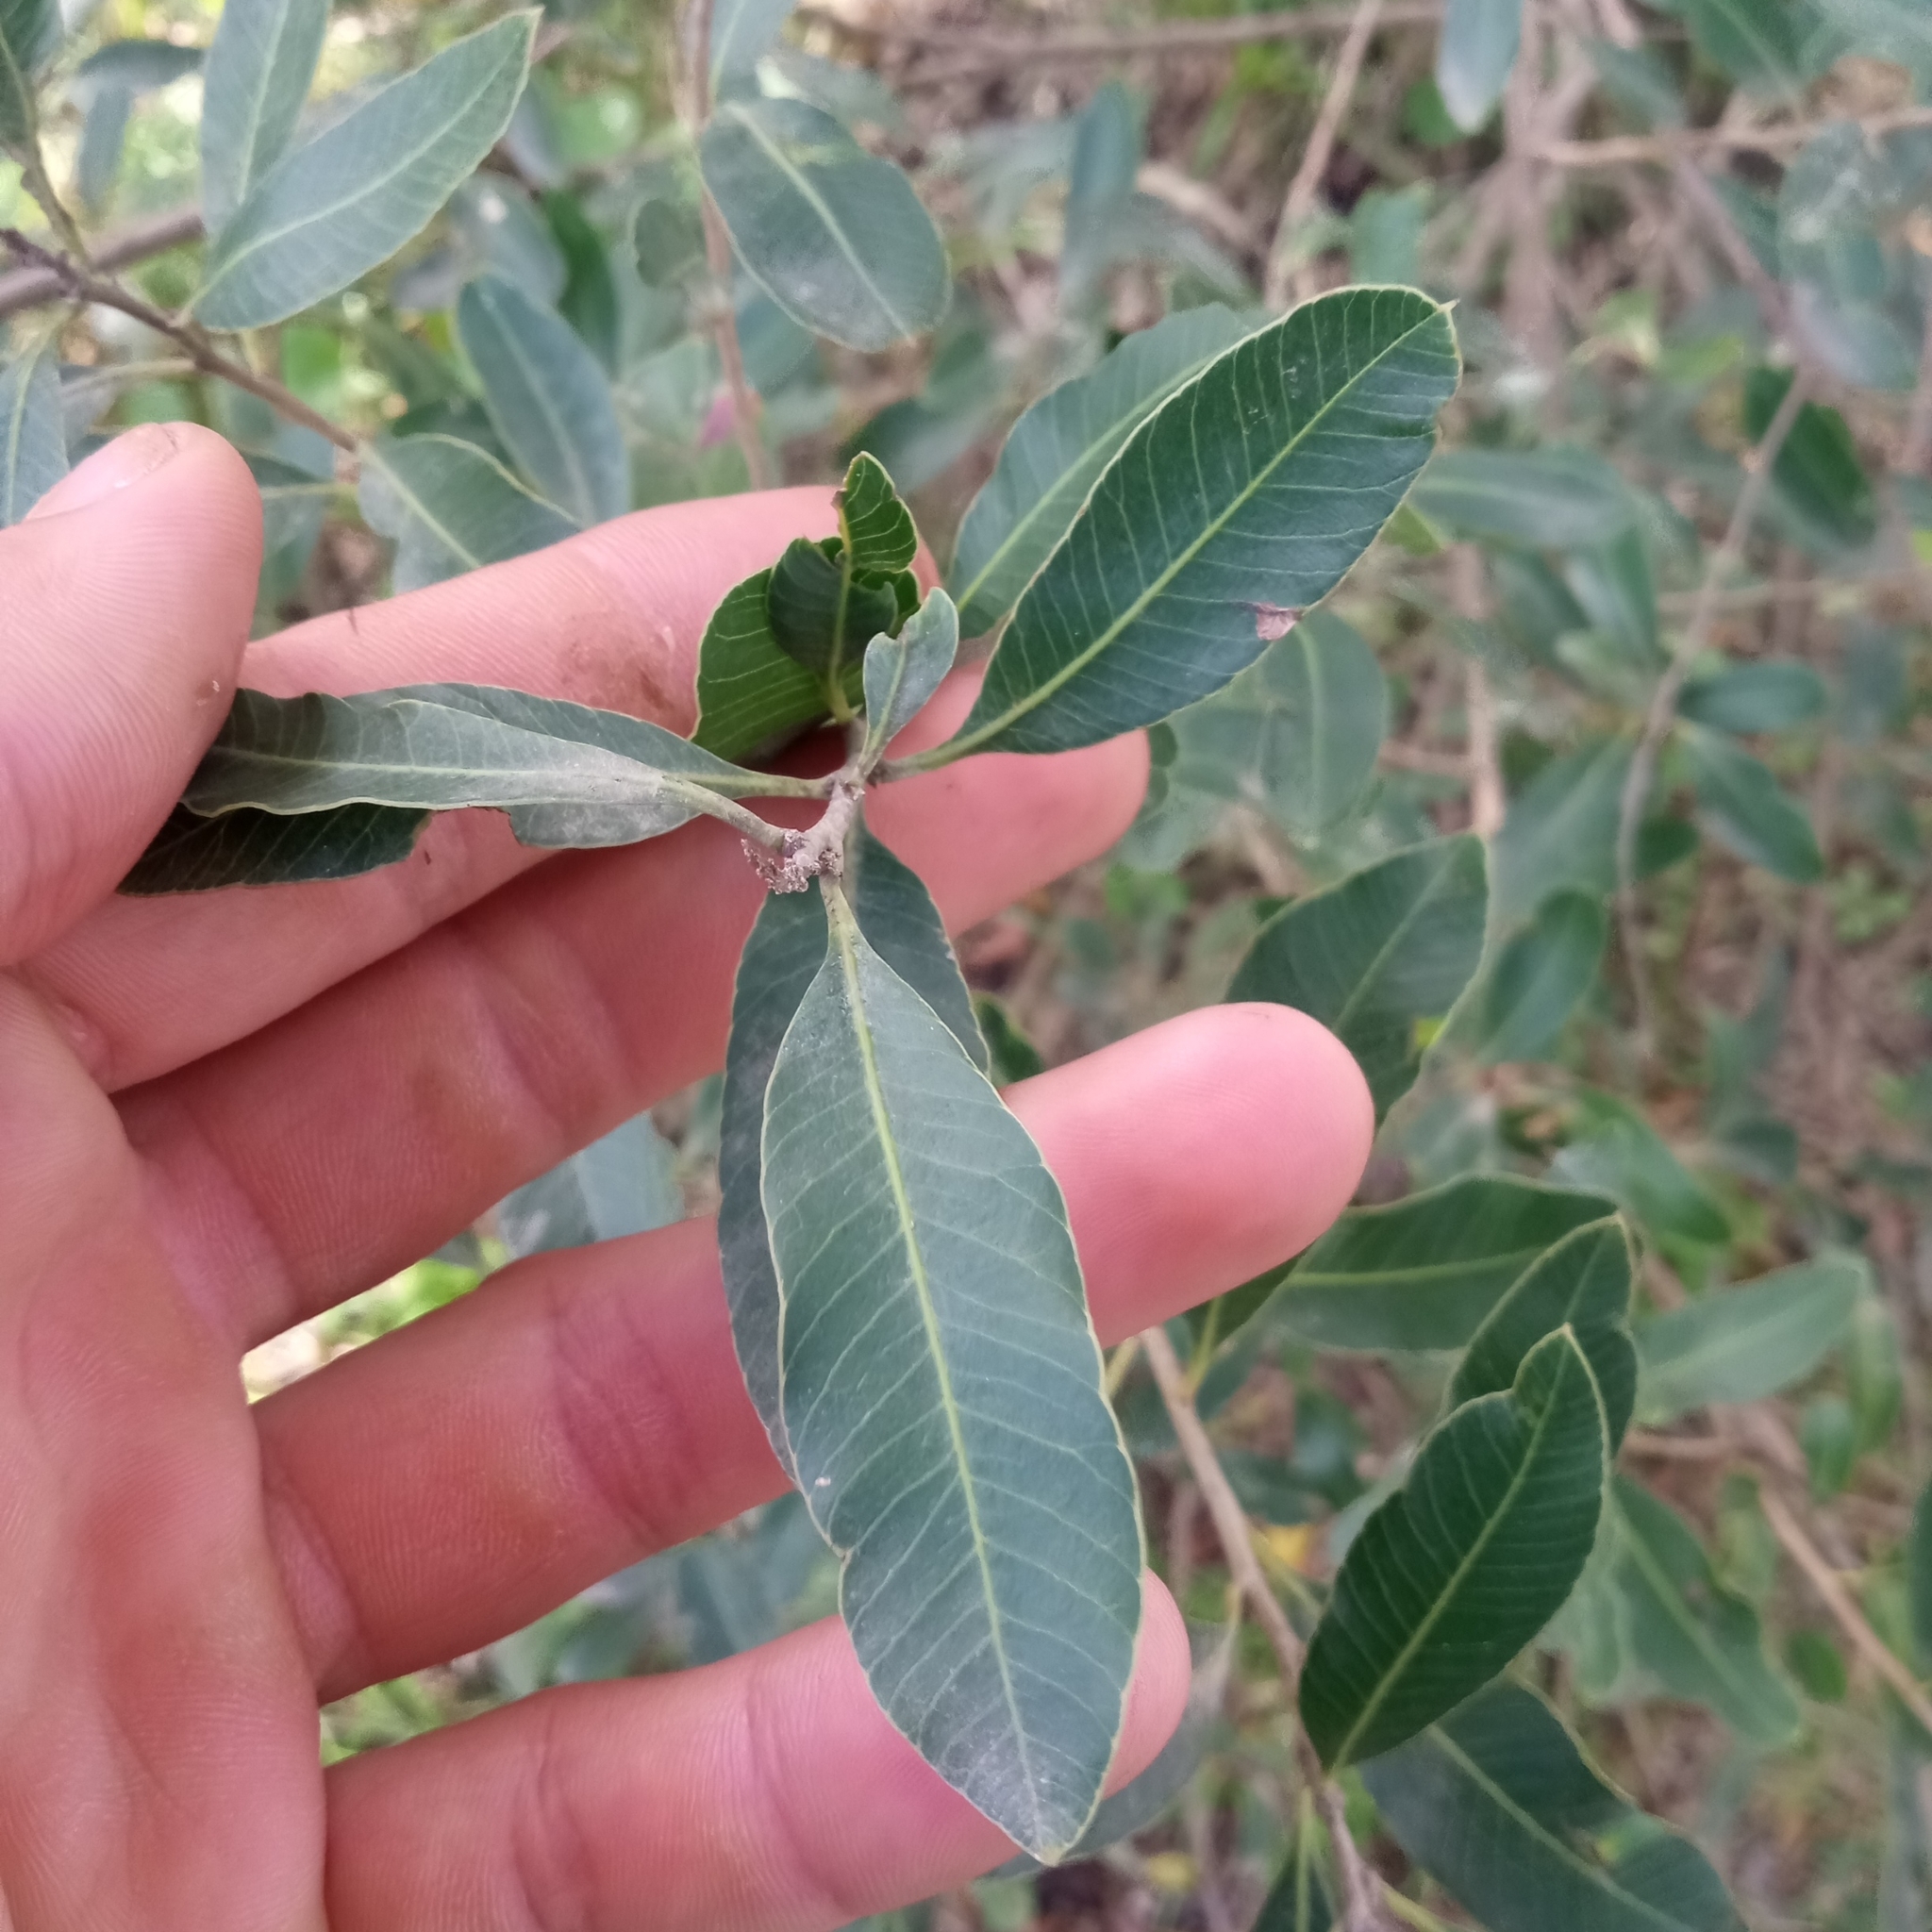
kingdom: Plantae
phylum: Tracheophyta
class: Magnoliopsida
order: Sapindales
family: Anacardiaceae
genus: Lithraea
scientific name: Lithraea brasiliensis
